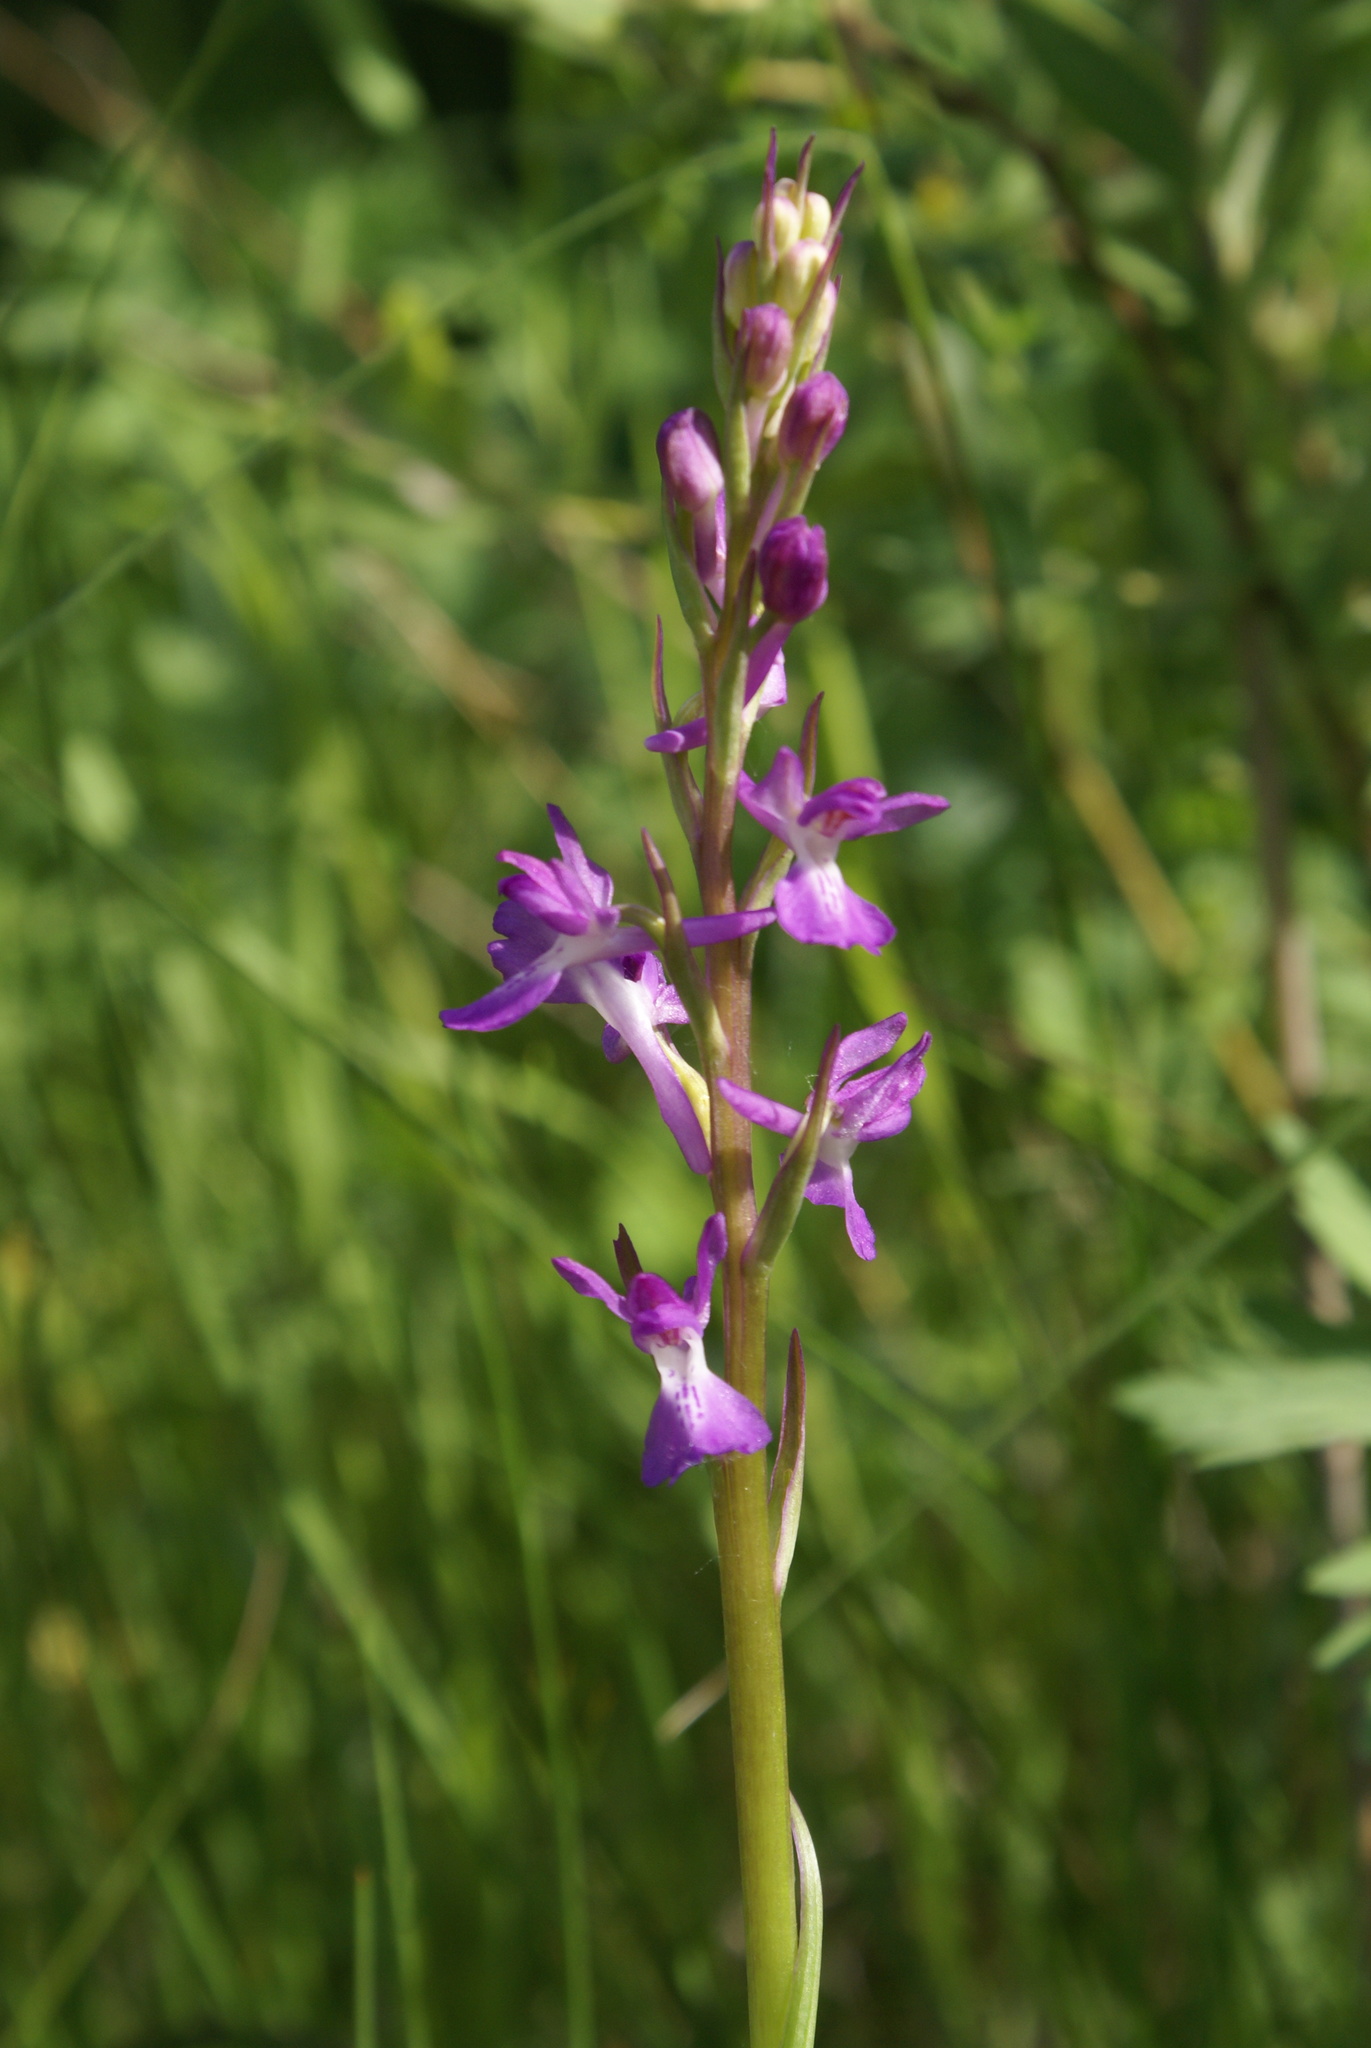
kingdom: Plantae
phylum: Tracheophyta
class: Liliopsida
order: Asparagales
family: Orchidaceae
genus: Anacamptis
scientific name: Anacamptis palustris
